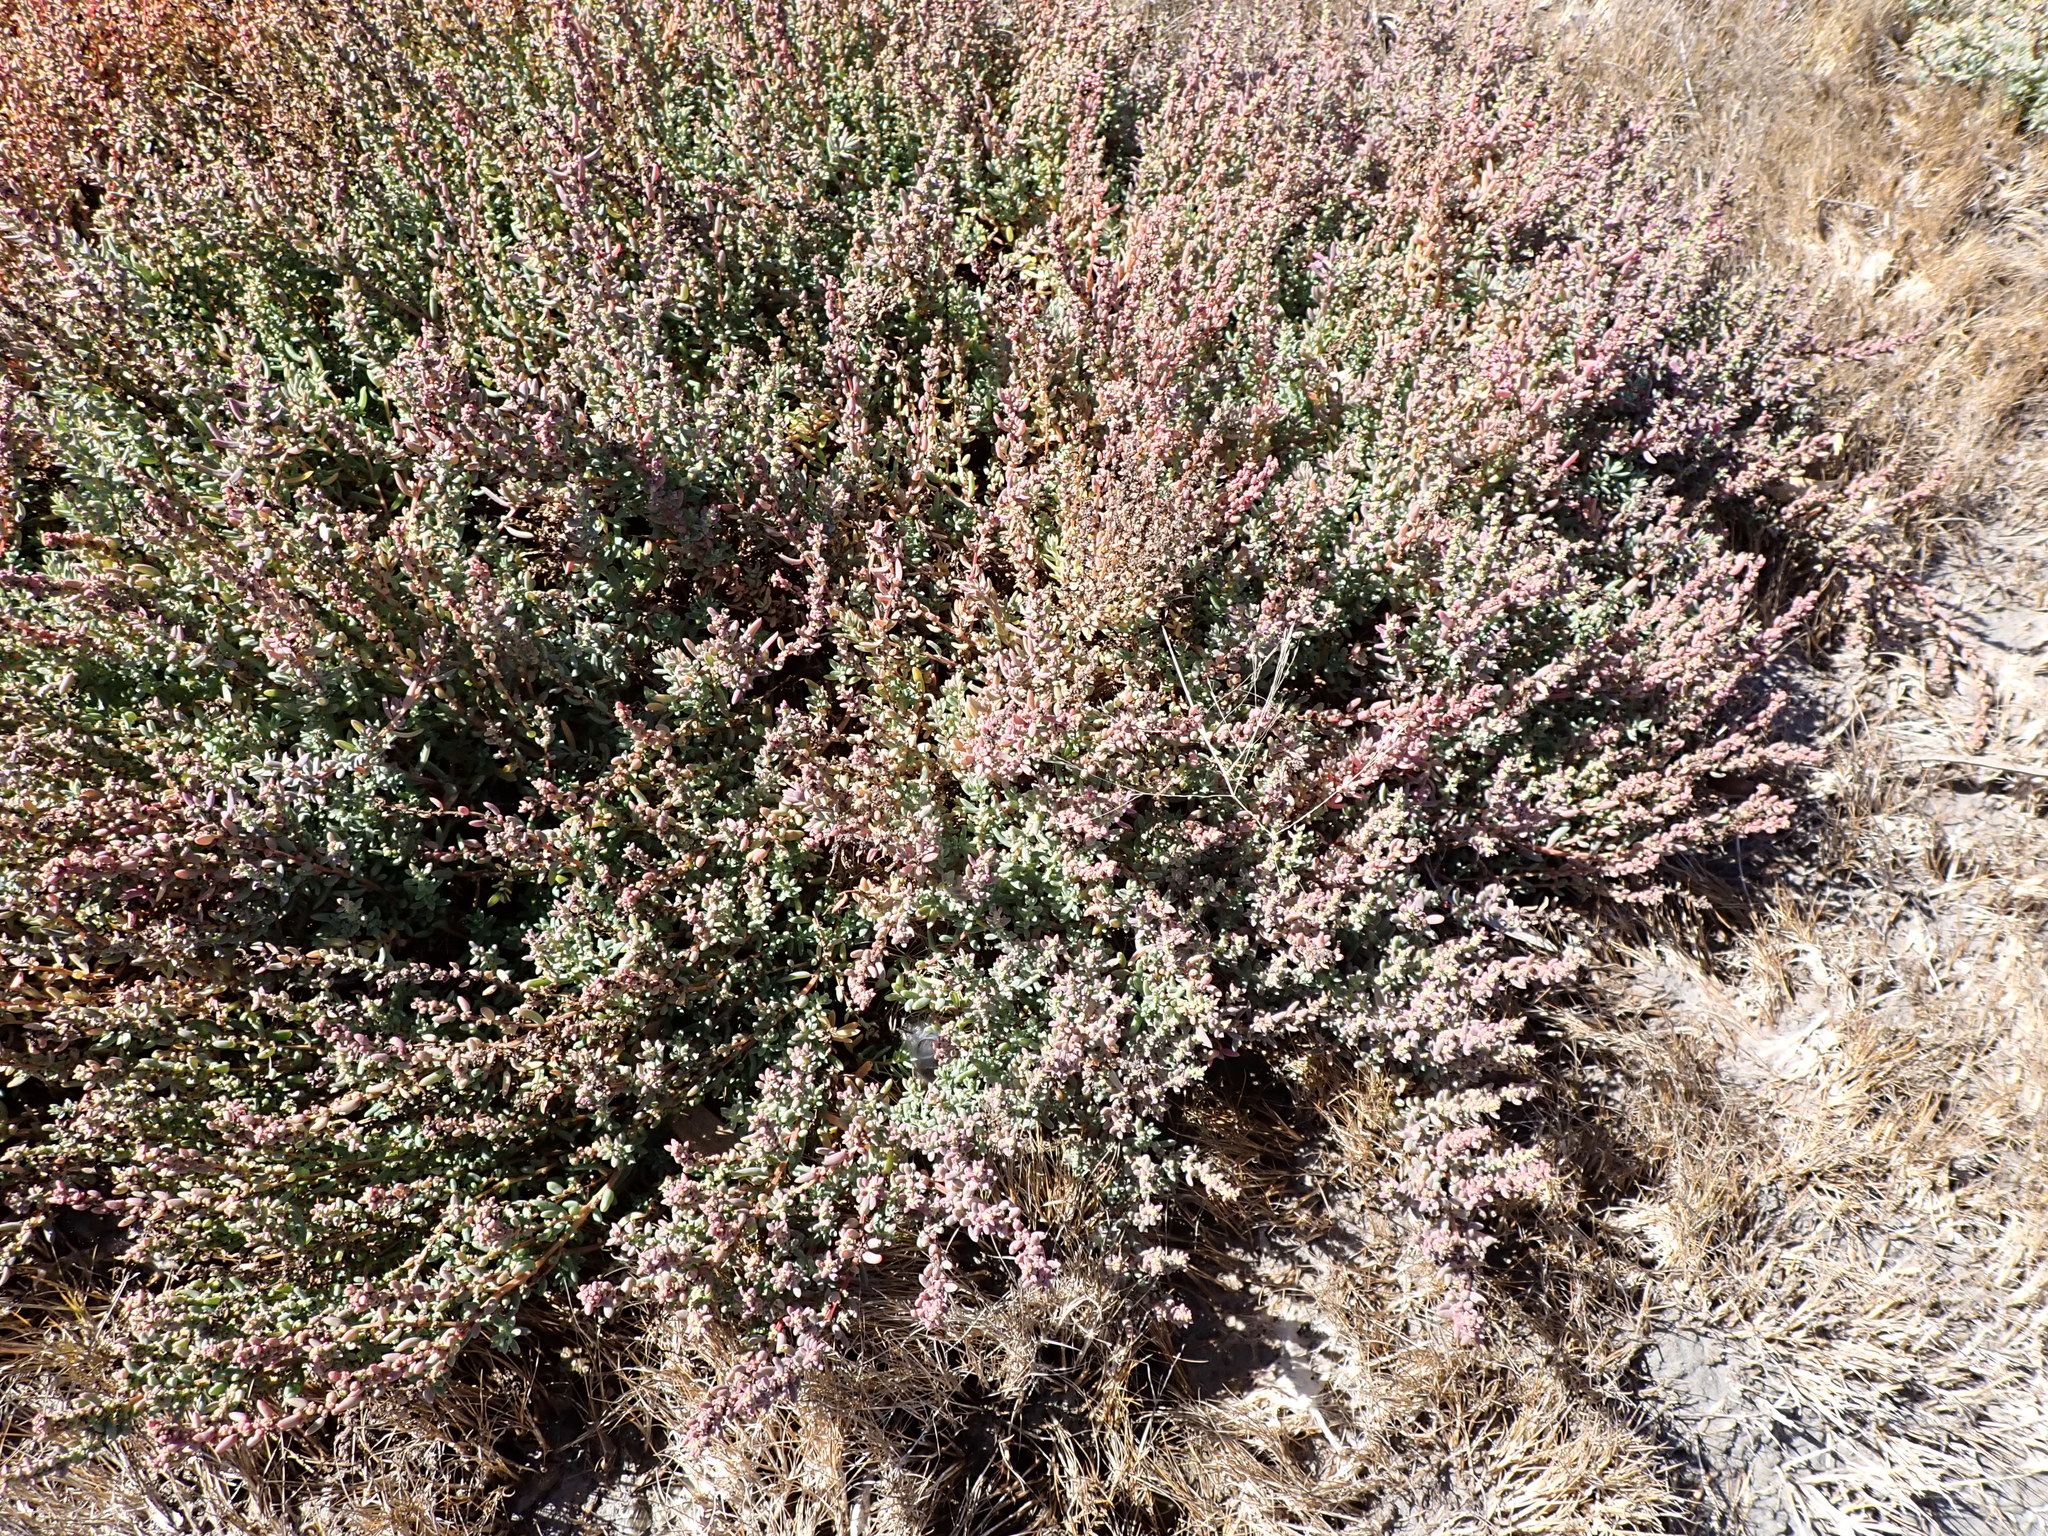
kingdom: Plantae
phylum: Tracheophyta
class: Magnoliopsida
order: Caryophyllales
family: Amaranthaceae
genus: Suaeda
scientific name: Suaeda australis
